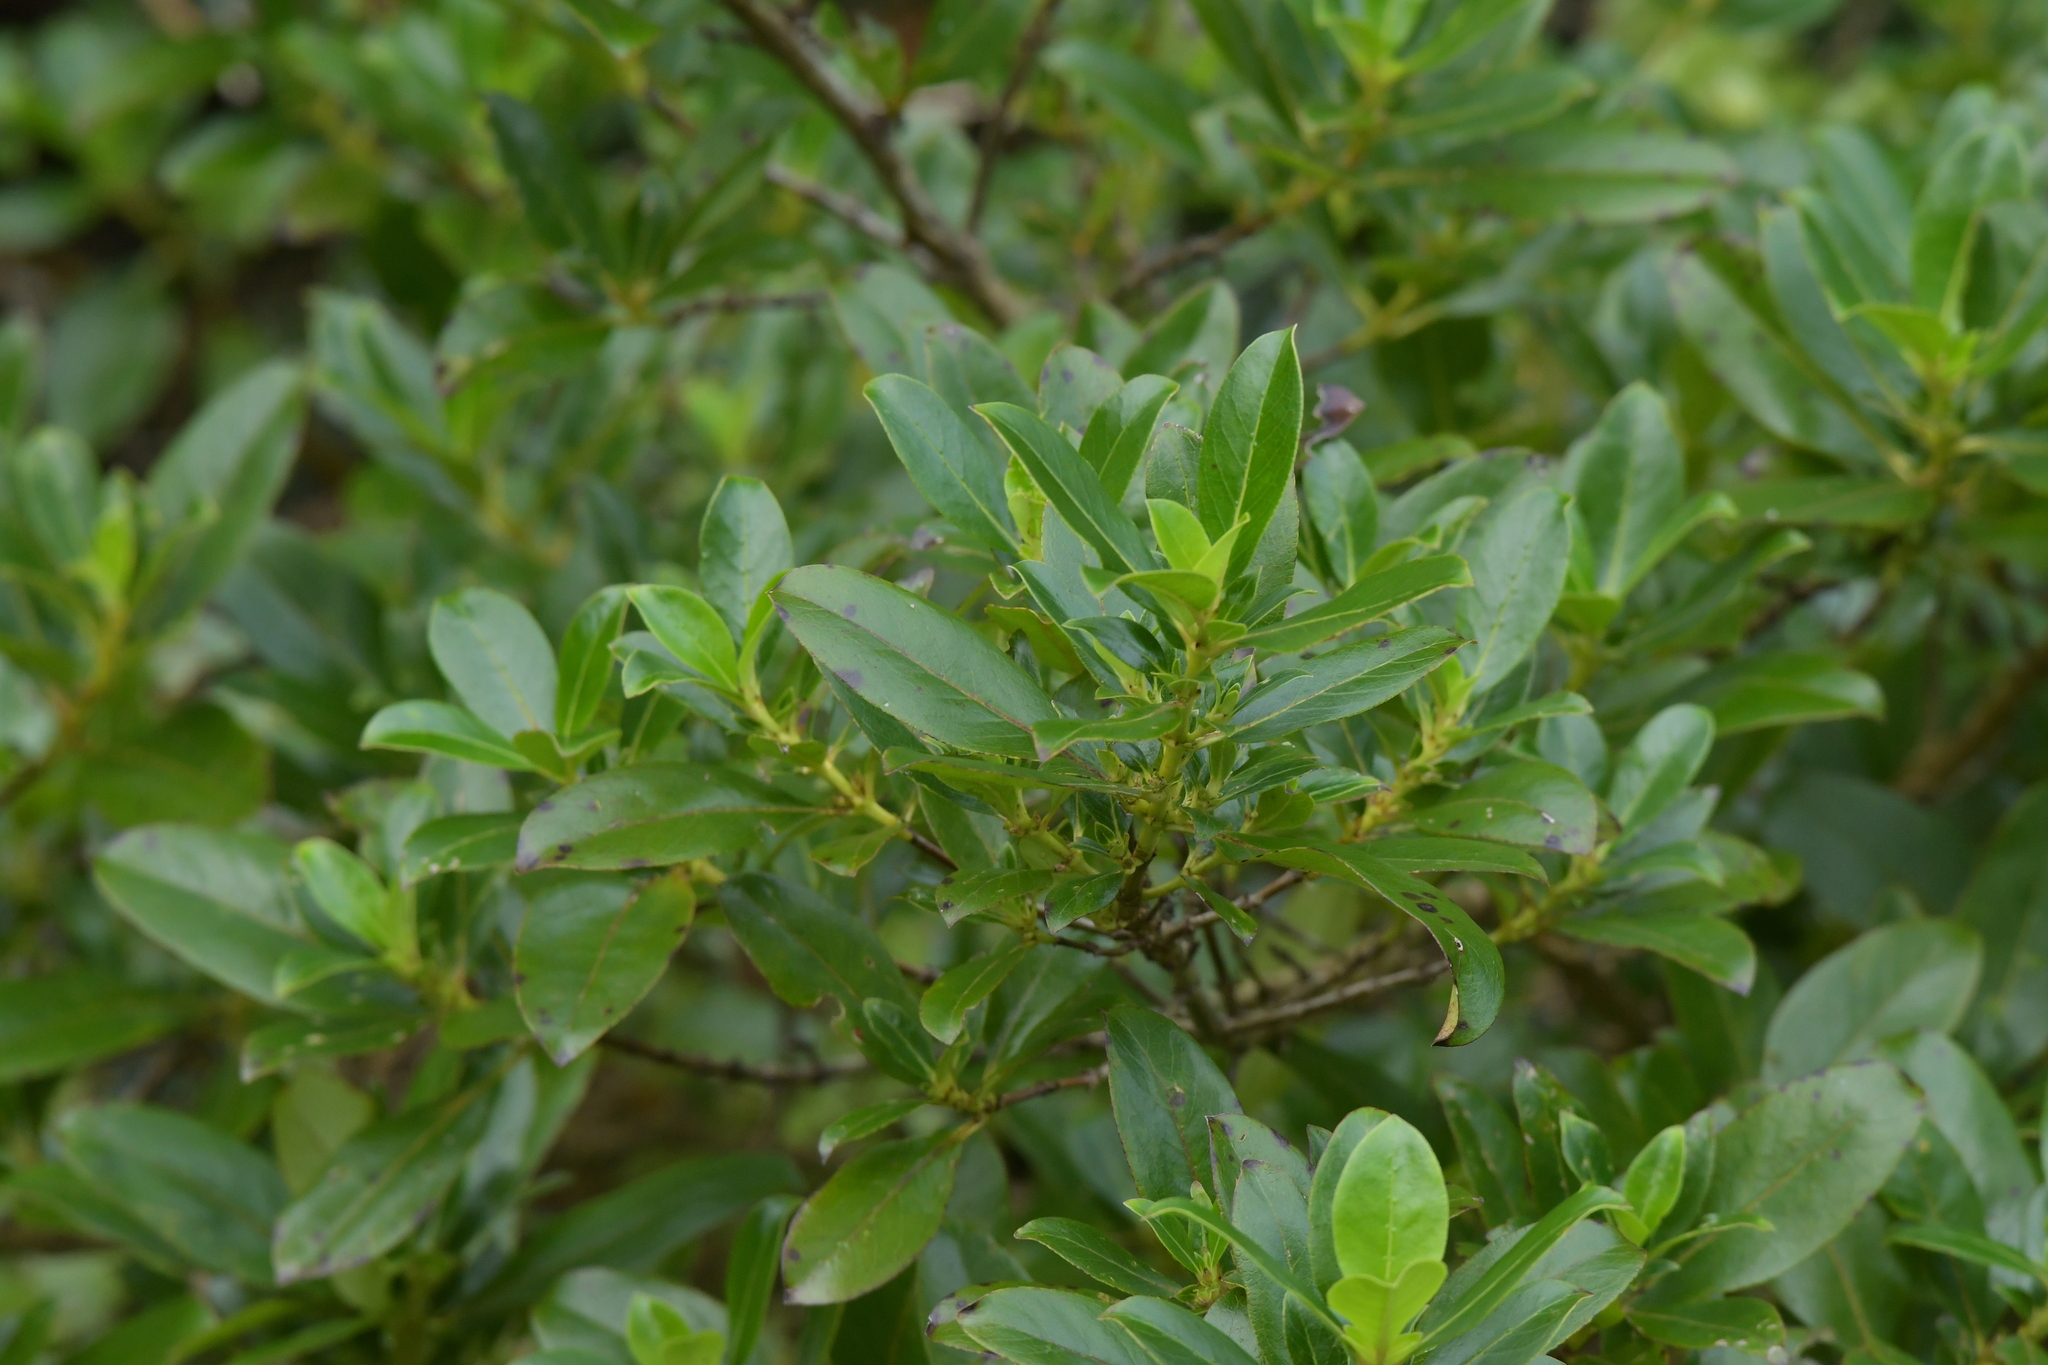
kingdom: Plantae
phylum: Tracheophyta
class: Magnoliopsida
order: Gentianales
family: Rubiaceae
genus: Coprosma
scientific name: Coprosma robusta
